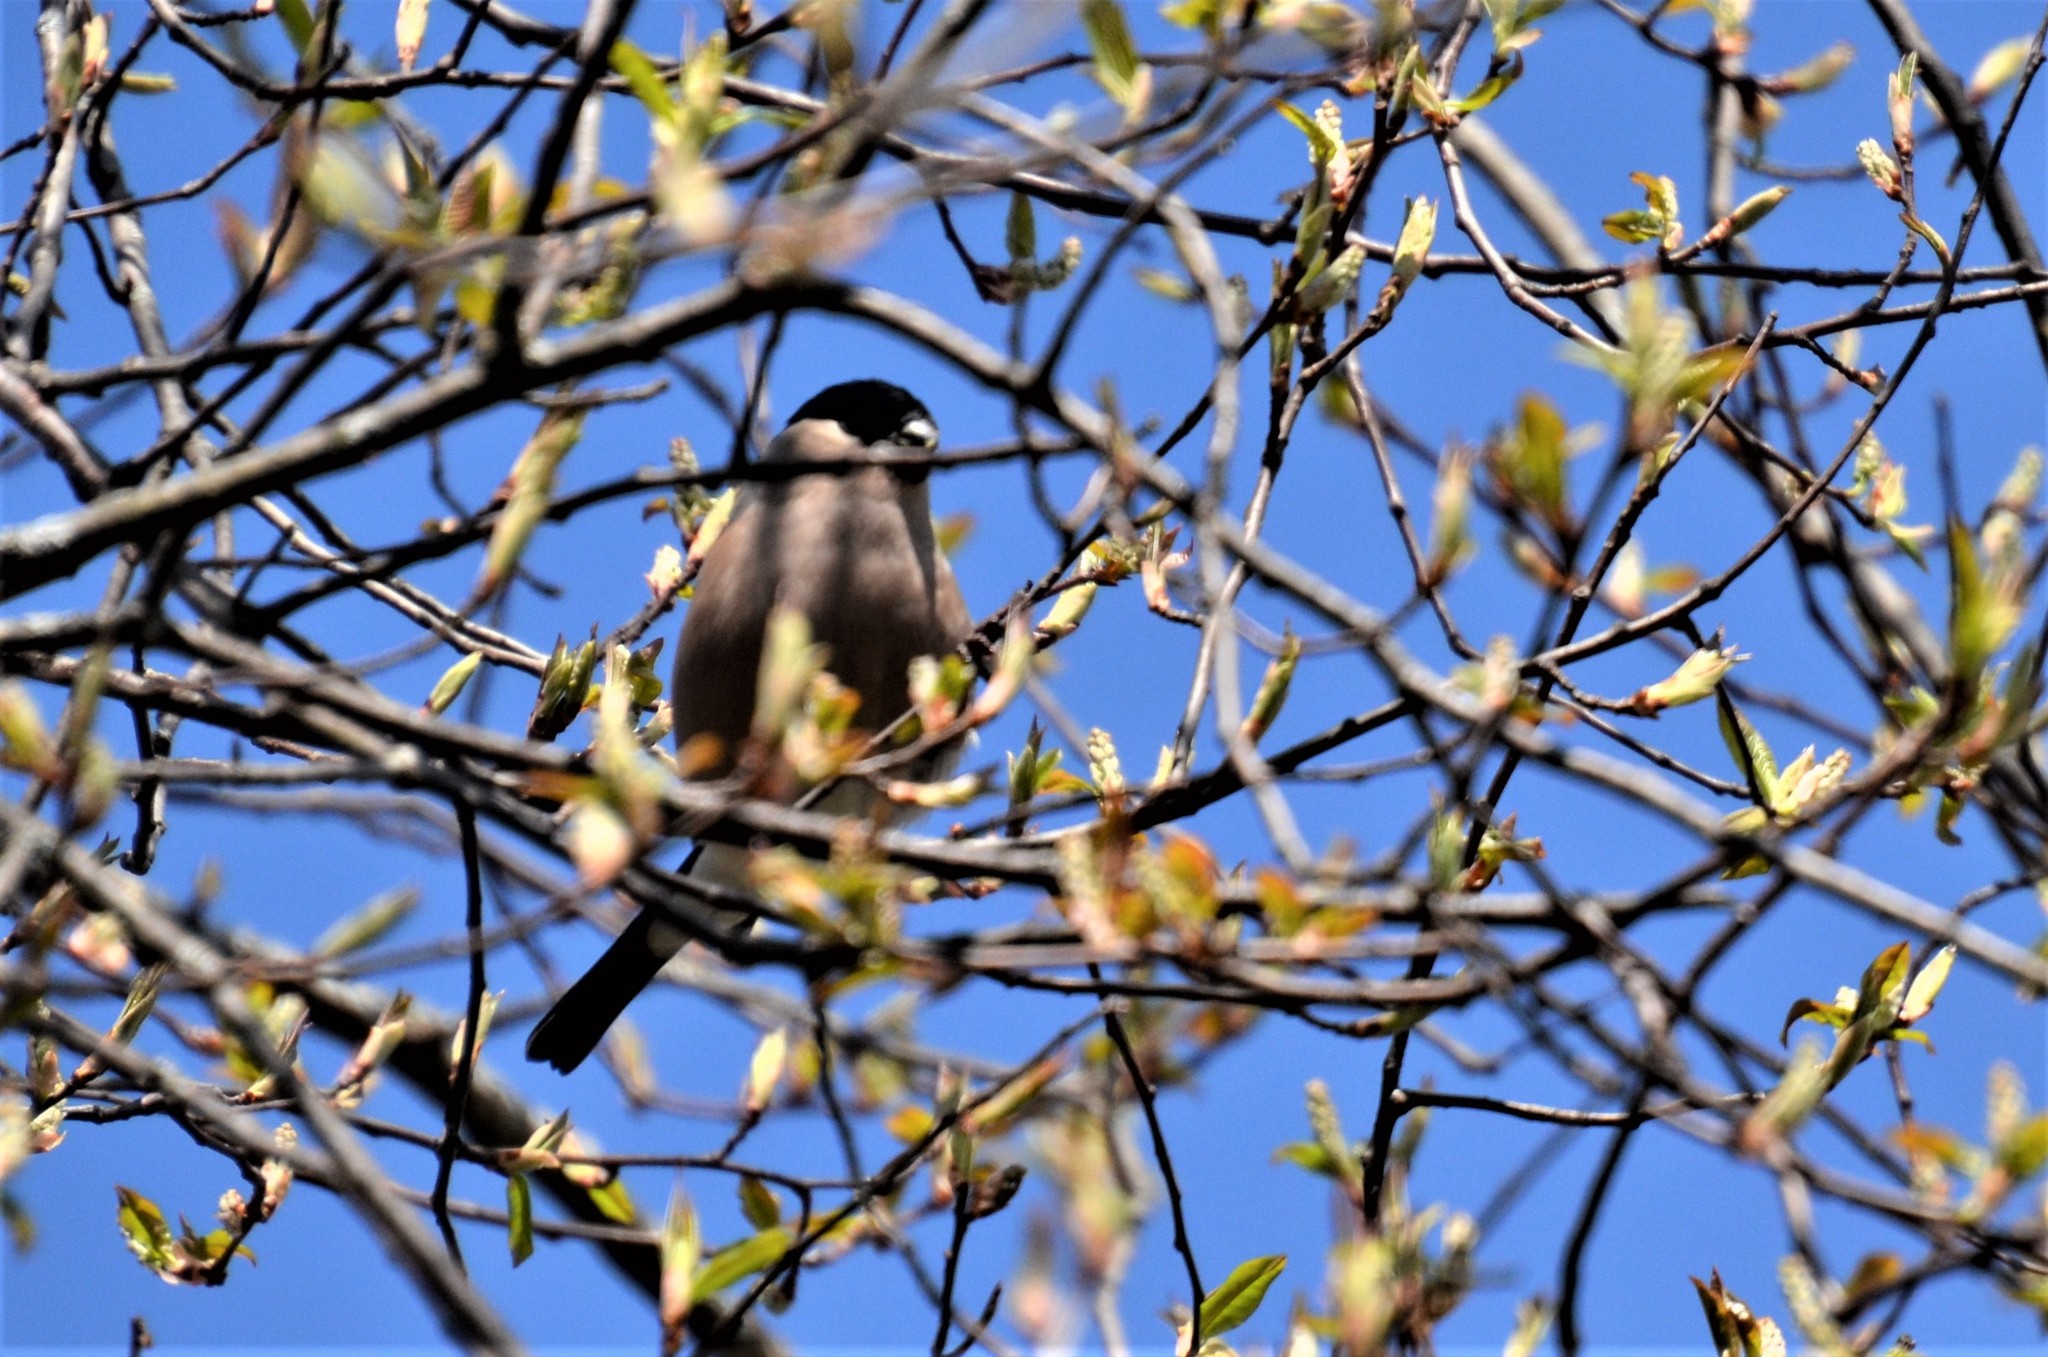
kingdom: Animalia
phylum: Chordata
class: Aves
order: Passeriformes
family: Fringillidae
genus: Pyrrhula
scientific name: Pyrrhula pyrrhula
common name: Eurasian bullfinch
